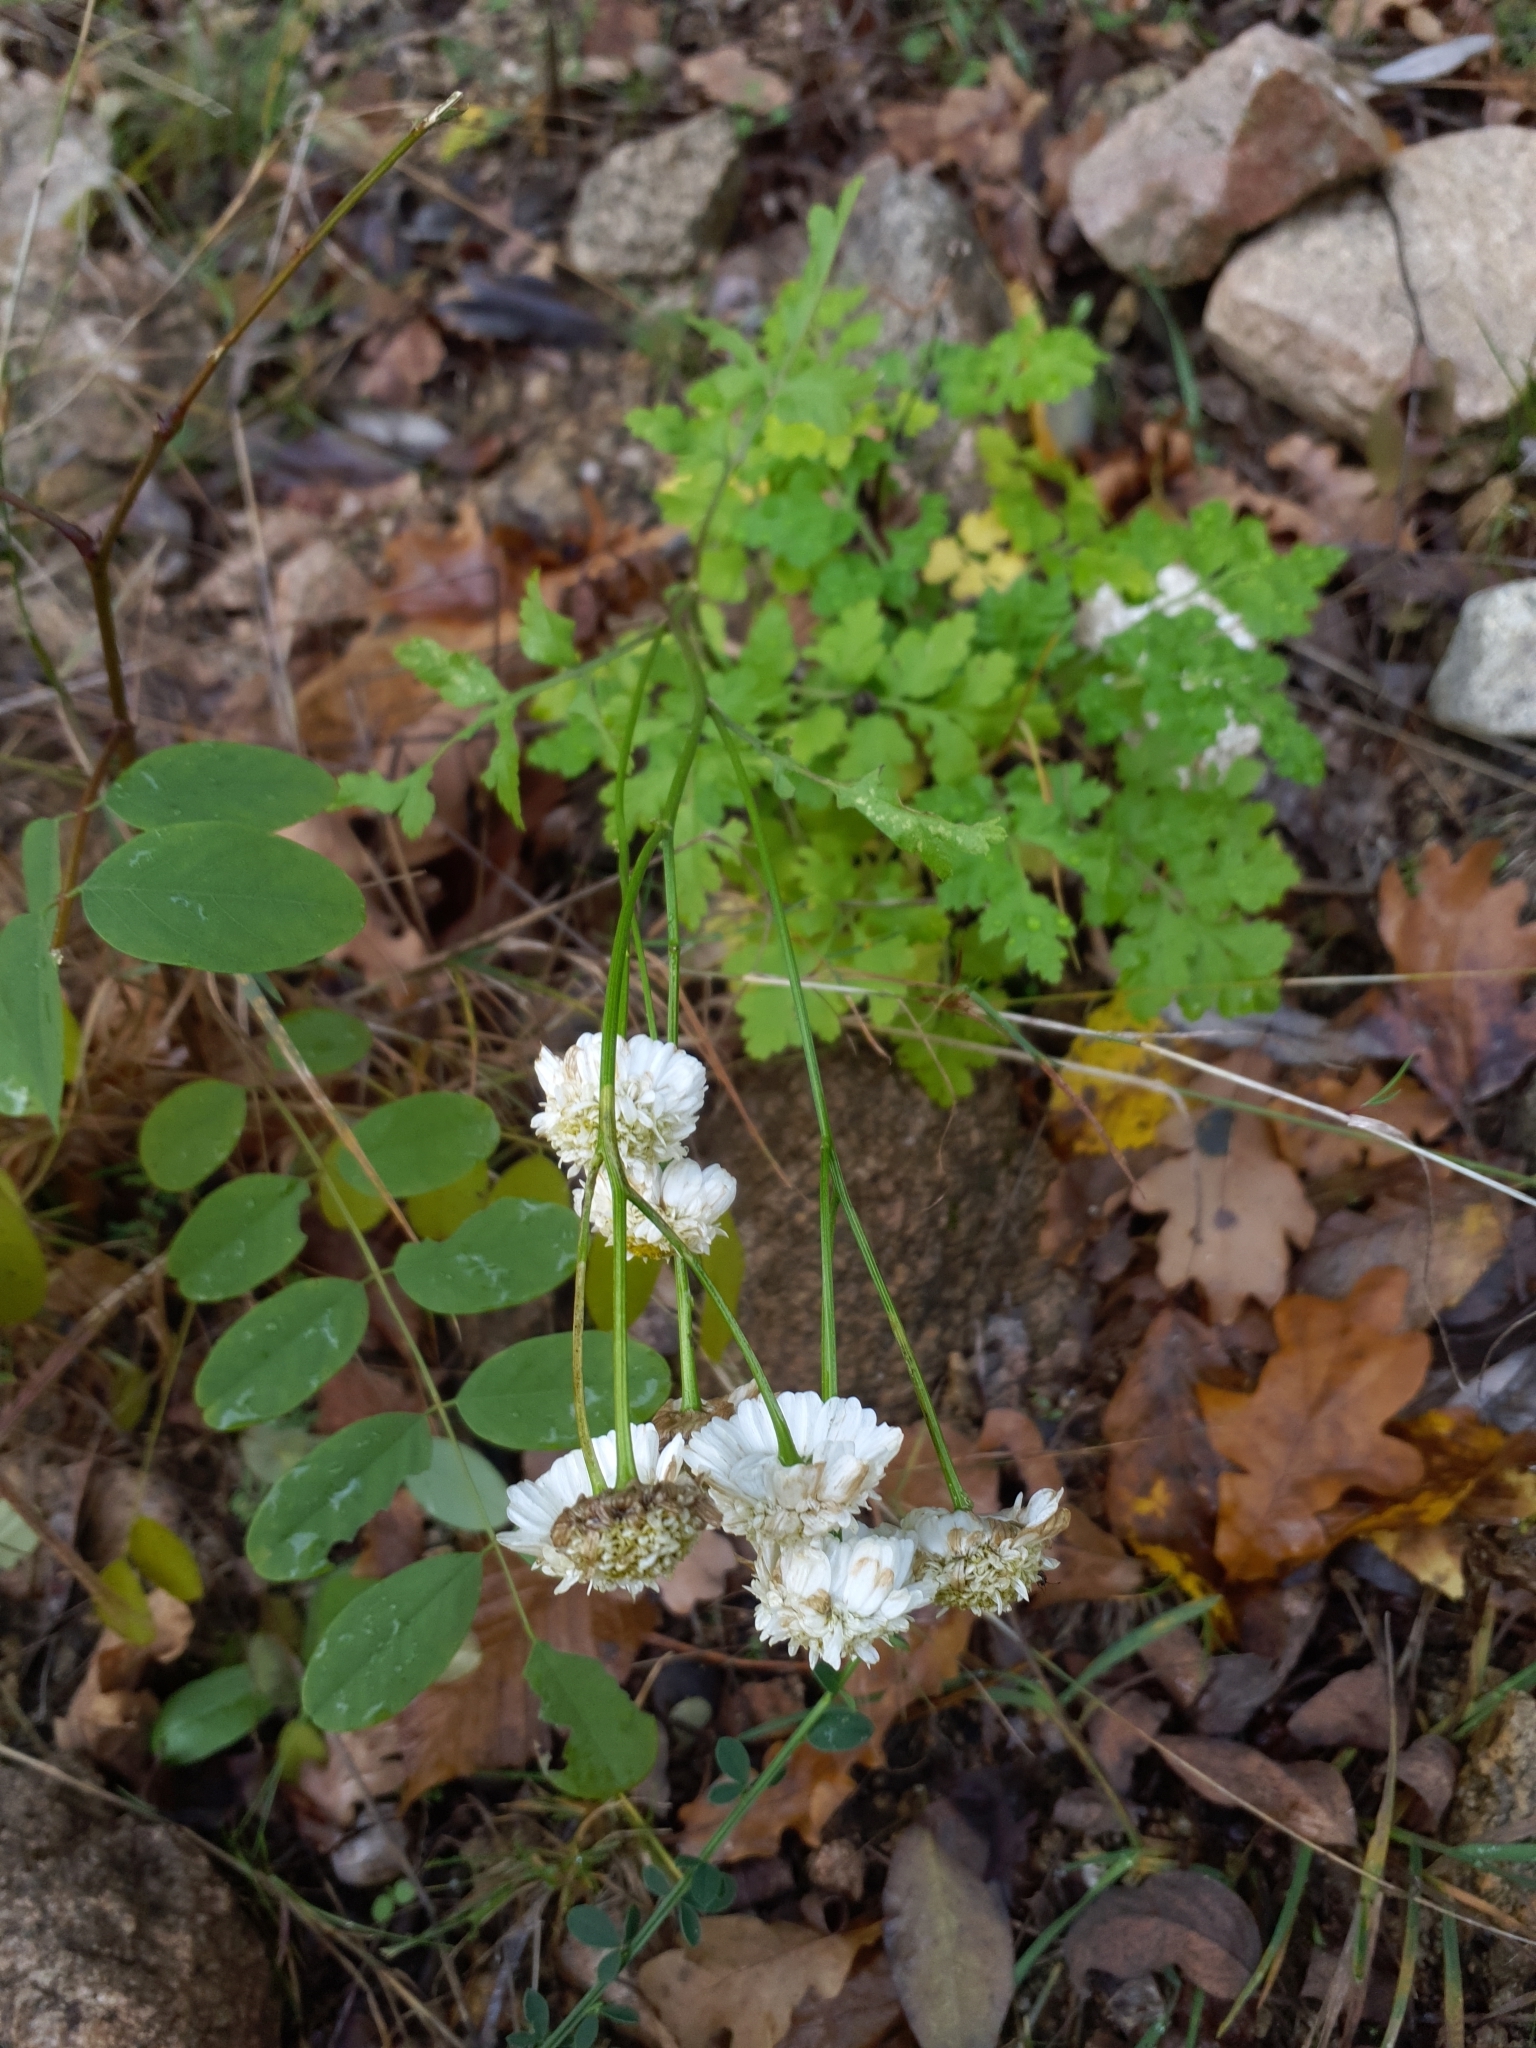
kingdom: Plantae
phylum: Tracheophyta
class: Magnoliopsida
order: Asterales
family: Asteraceae
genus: Tanacetum
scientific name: Tanacetum parthenium
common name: Feverfew
